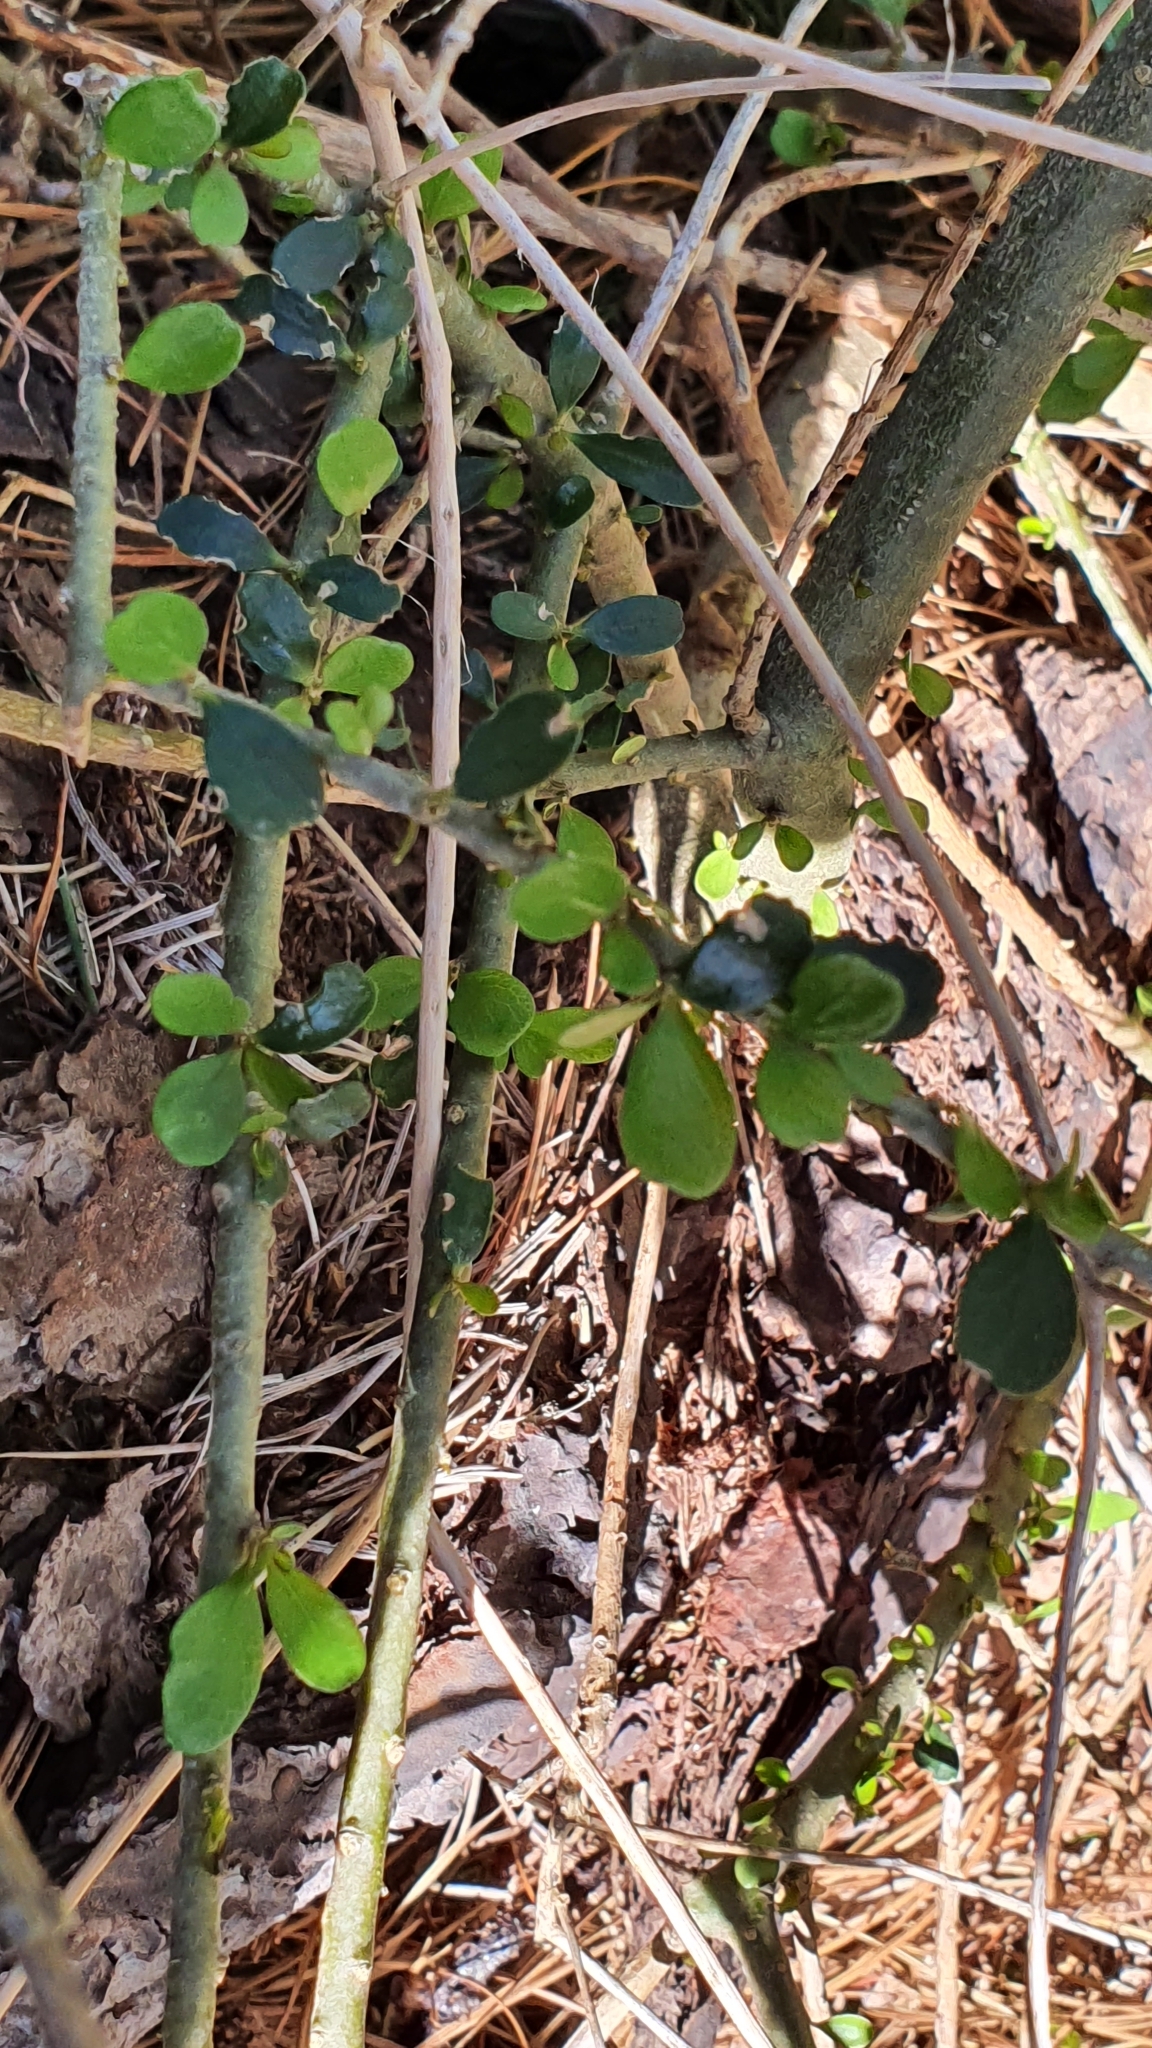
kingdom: Plantae
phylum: Tracheophyta
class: Magnoliopsida
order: Malpighiales
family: Violaceae
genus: Melicytus
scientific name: Melicytus crassifolius
